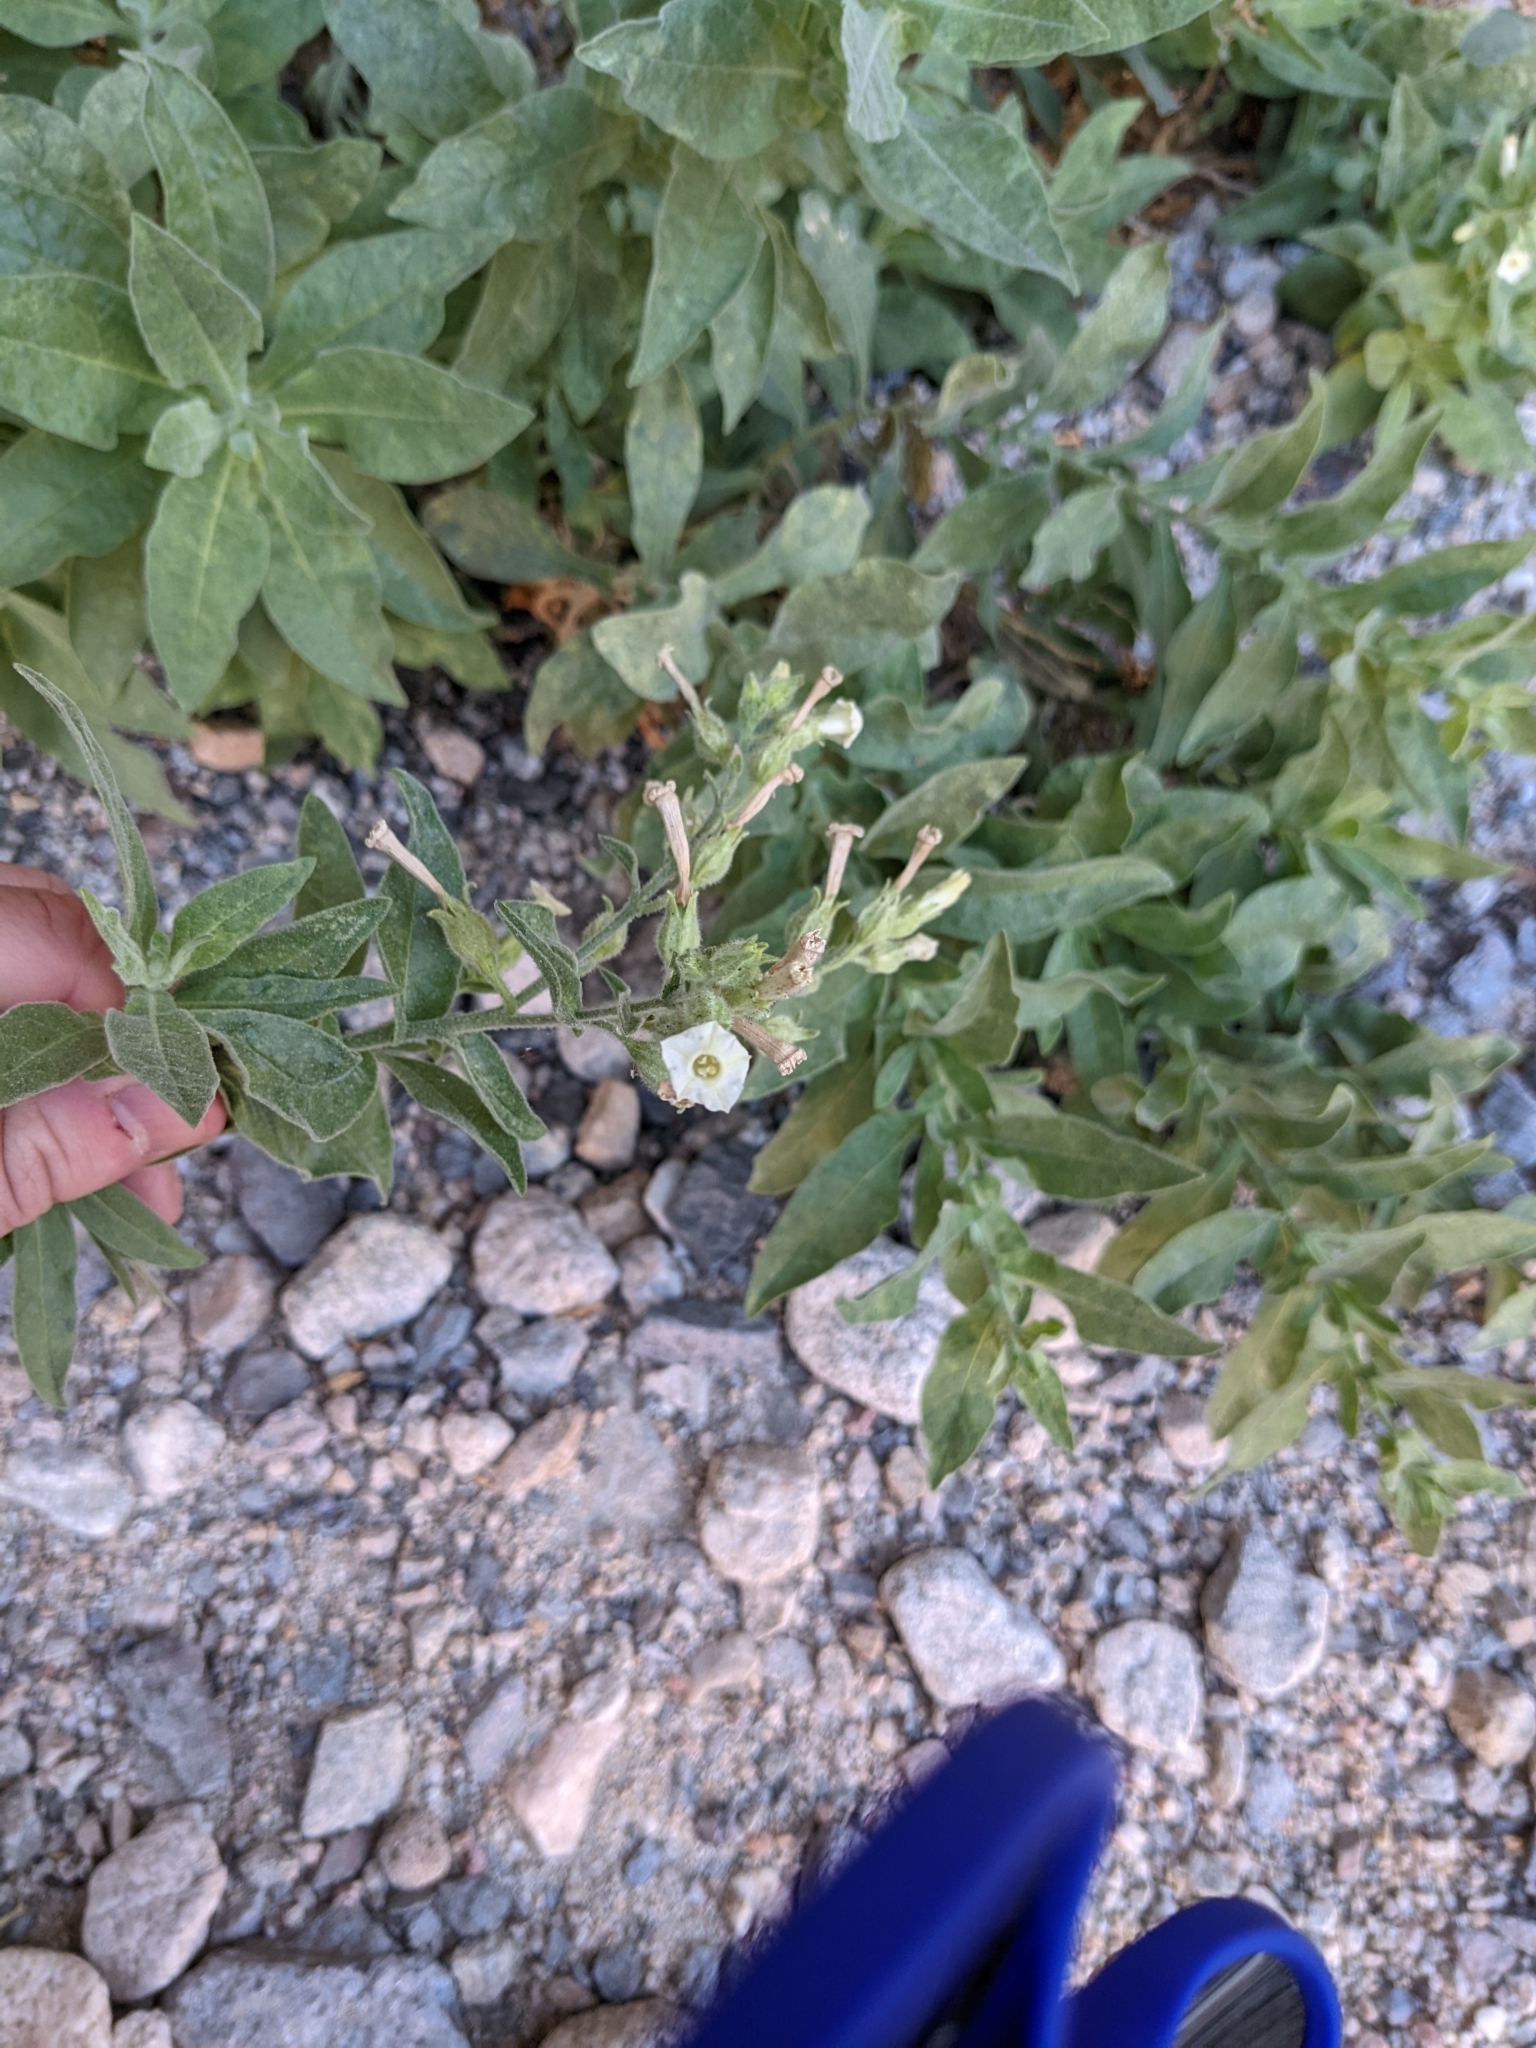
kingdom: Plantae
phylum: Tracheophyta
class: Magnoliopsida
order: Solanales
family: Solanaceae
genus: Nicotiana
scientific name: Nicotiana obtusifolia
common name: Desert tobacco
